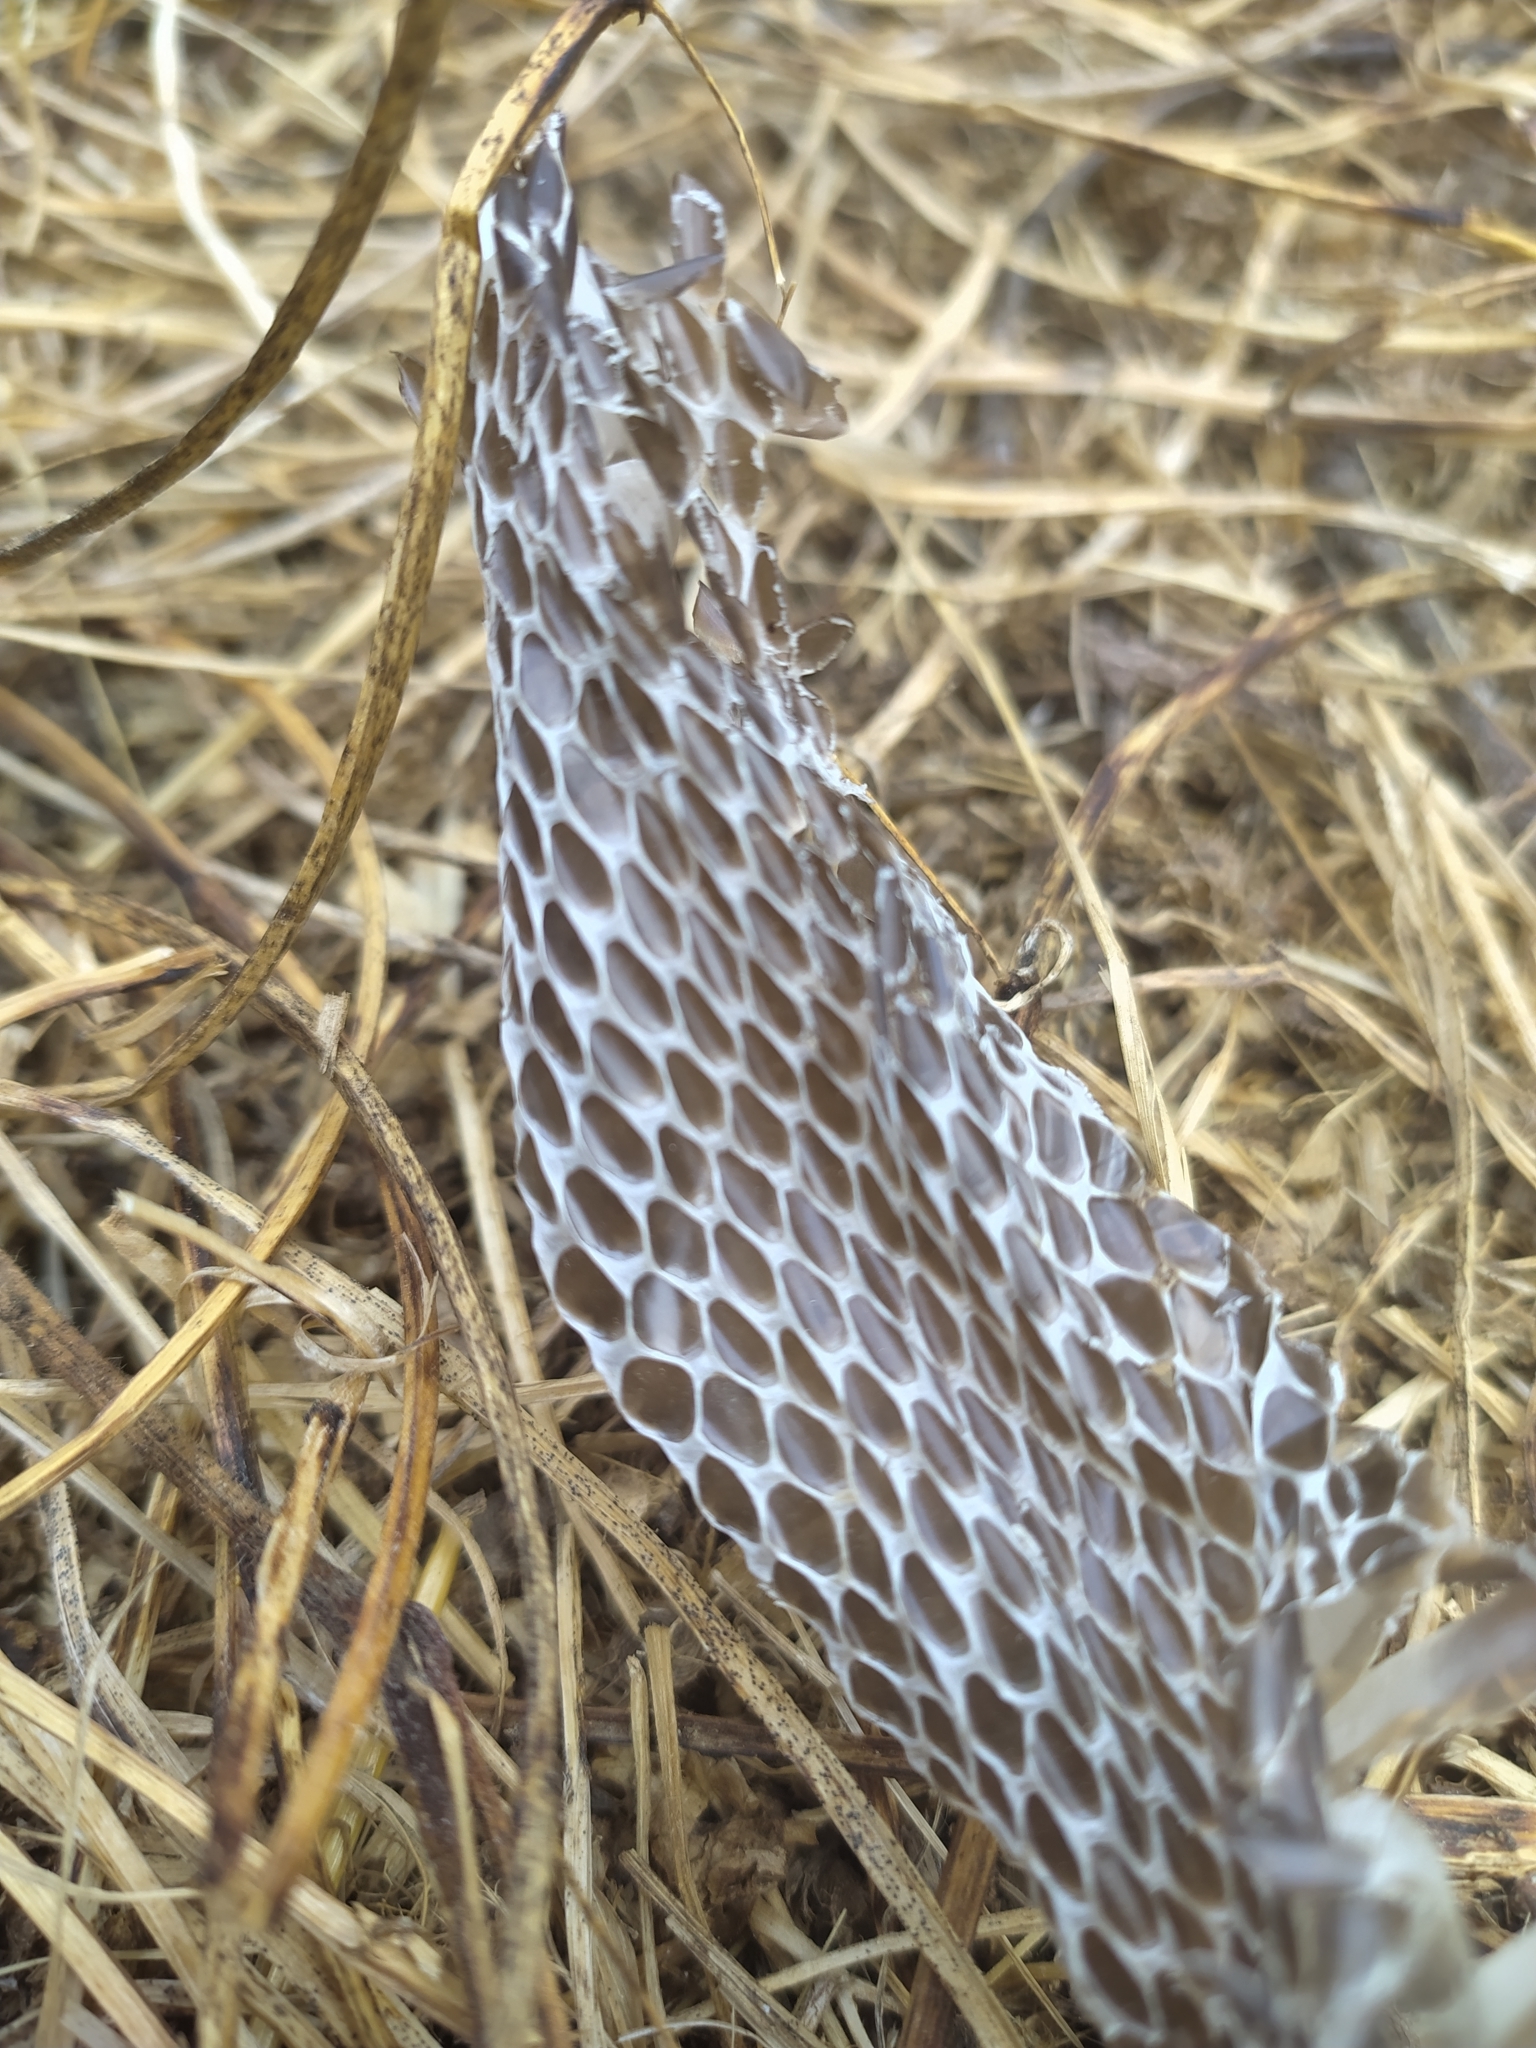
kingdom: Animalia
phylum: Chordata
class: Squamata
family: Colubridae
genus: Hierophis
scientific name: Hierophis viridiflavus
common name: Green whip snake
